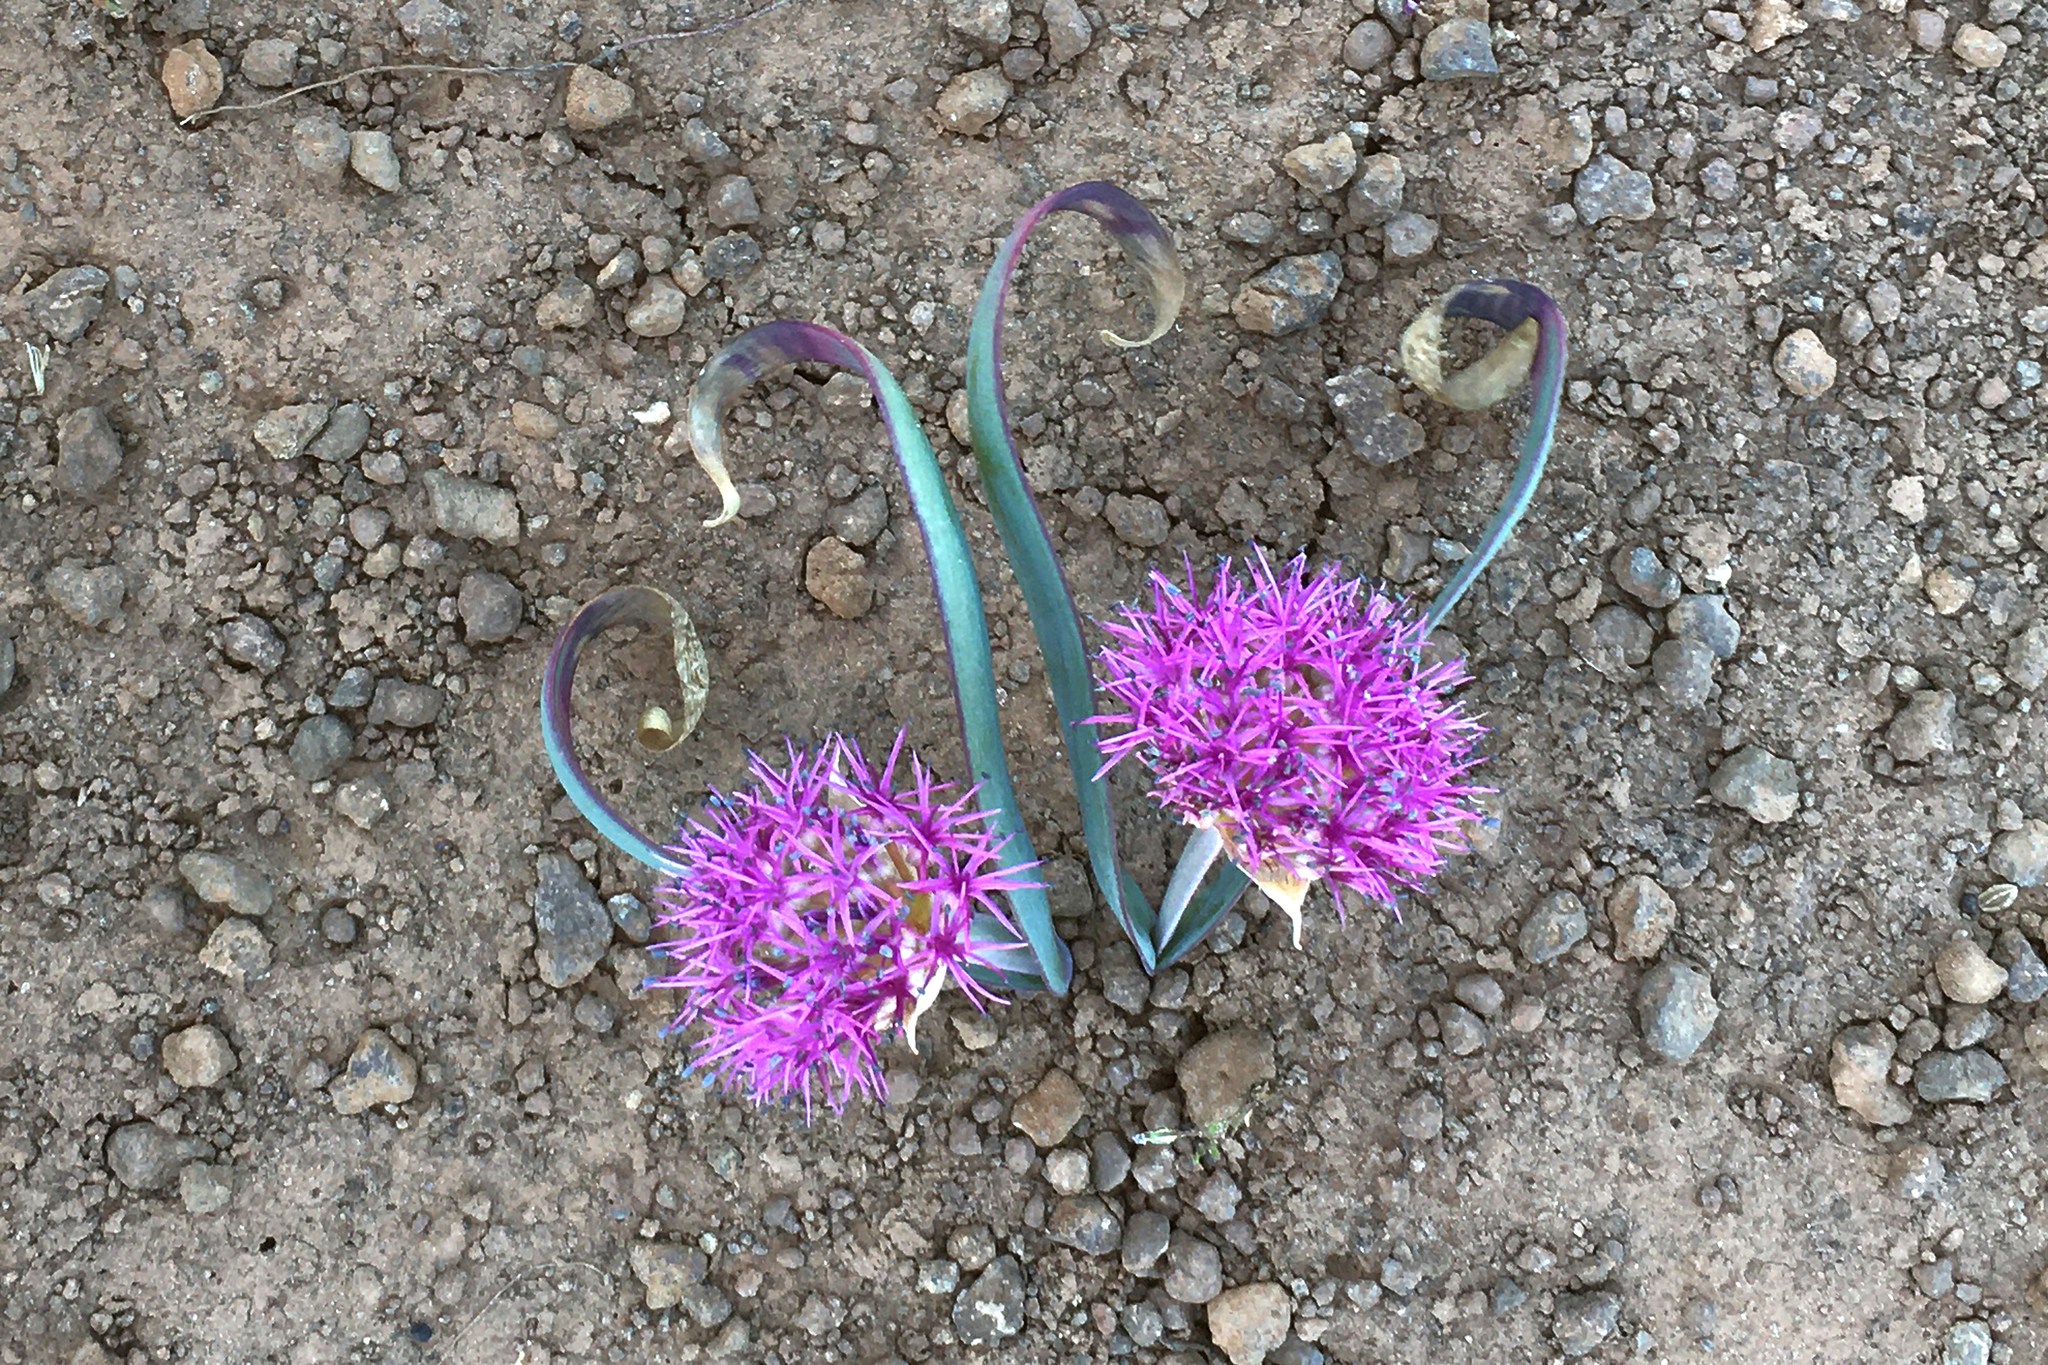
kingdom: Plantae
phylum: Tracheophyta
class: Liliopsida
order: Asparagales
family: Amaryllidaceae
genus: Allium
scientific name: Allium platycaule
